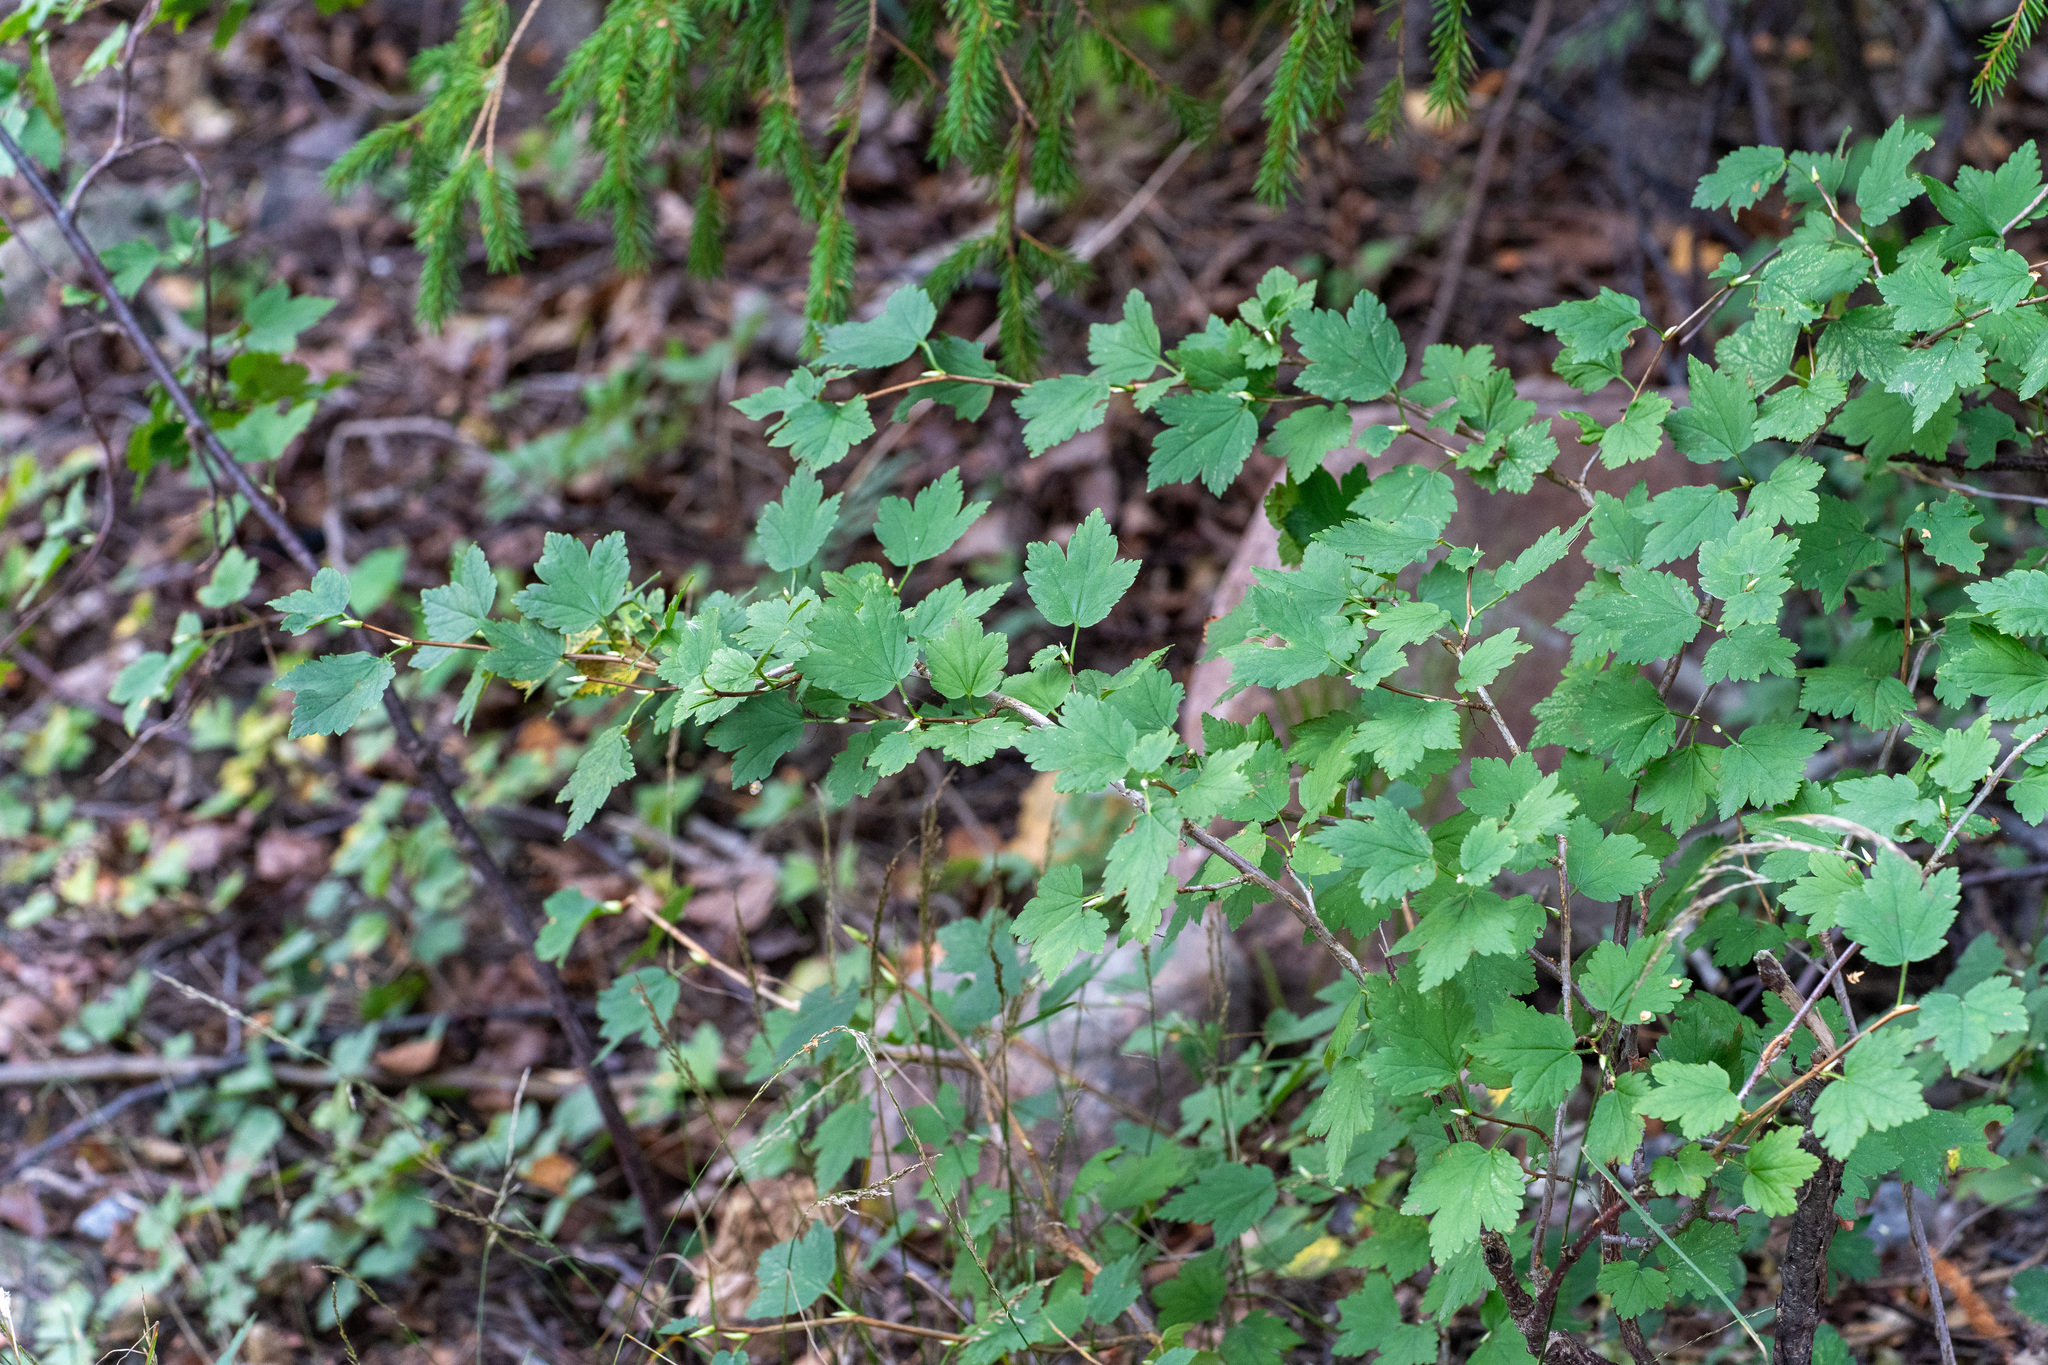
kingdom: Plantae
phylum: Tracheophyta
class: Magnoliopsida
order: Saxifragales
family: Grossulariaceae
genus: Ribes
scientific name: Ribes alpinum
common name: Alpine currant
